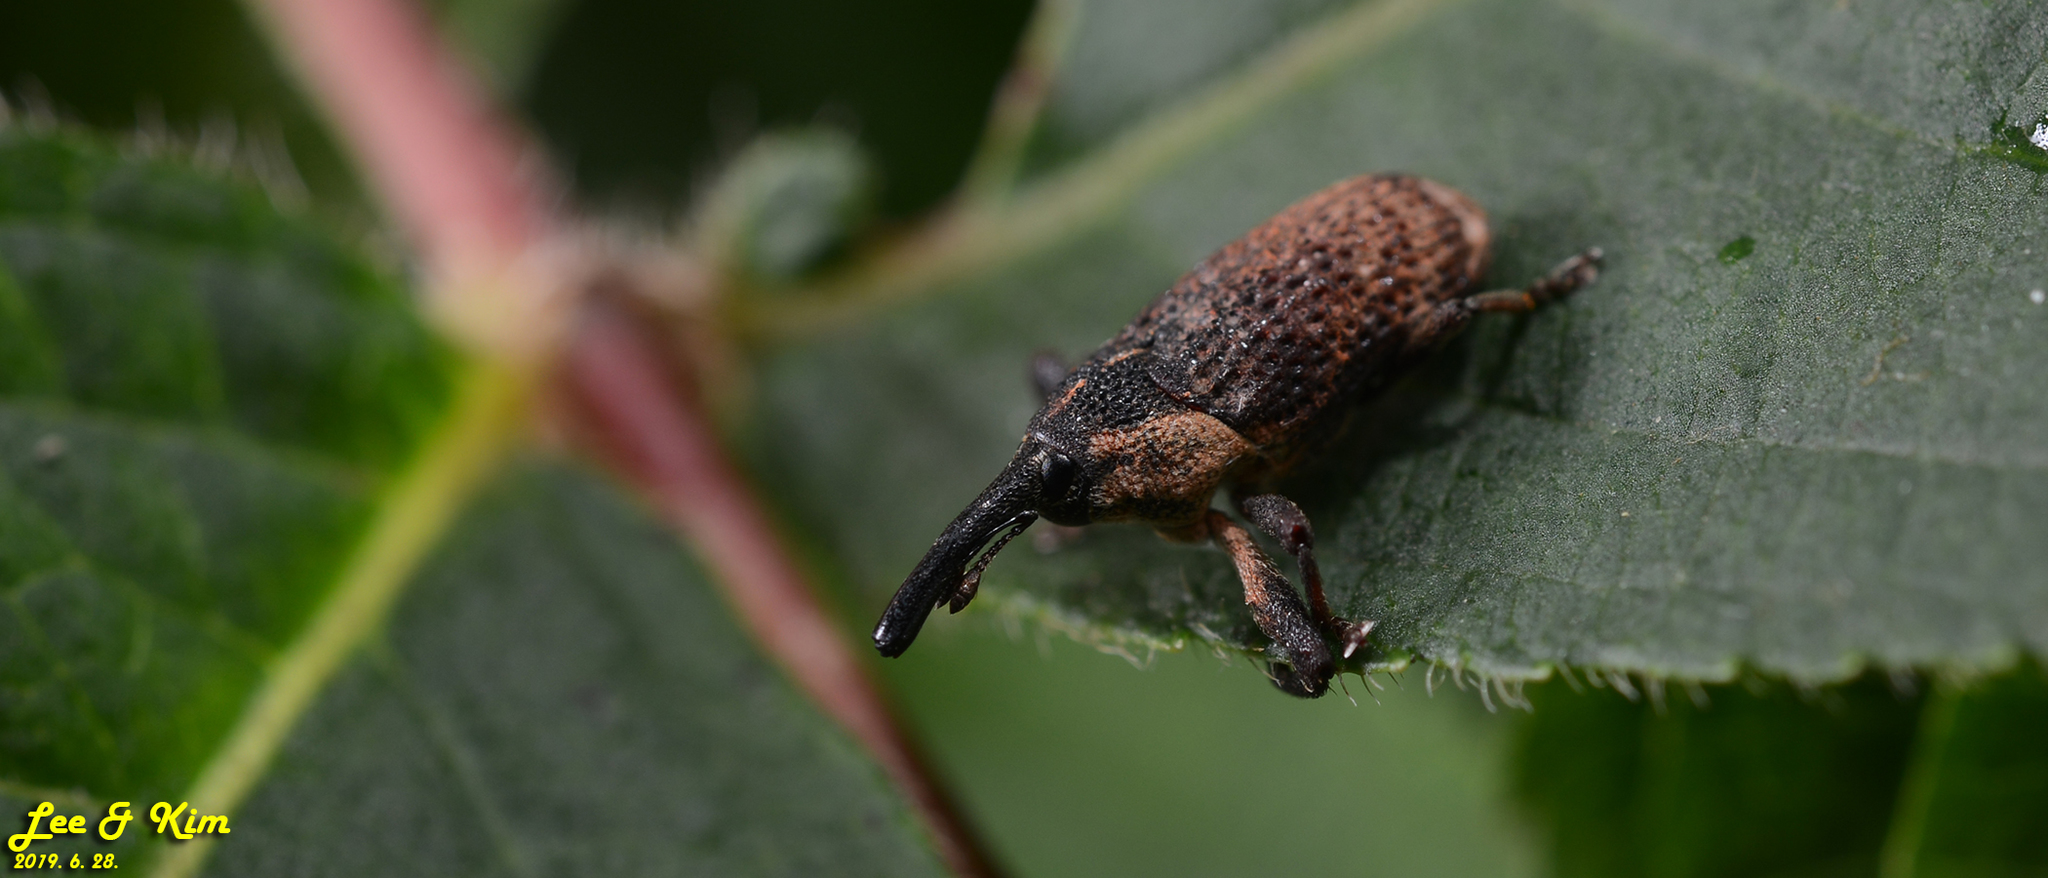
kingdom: Animalia
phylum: Arthropoda
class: Insecta
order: Coleoptera
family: Curculionidae
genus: Merus
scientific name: Merus erro
